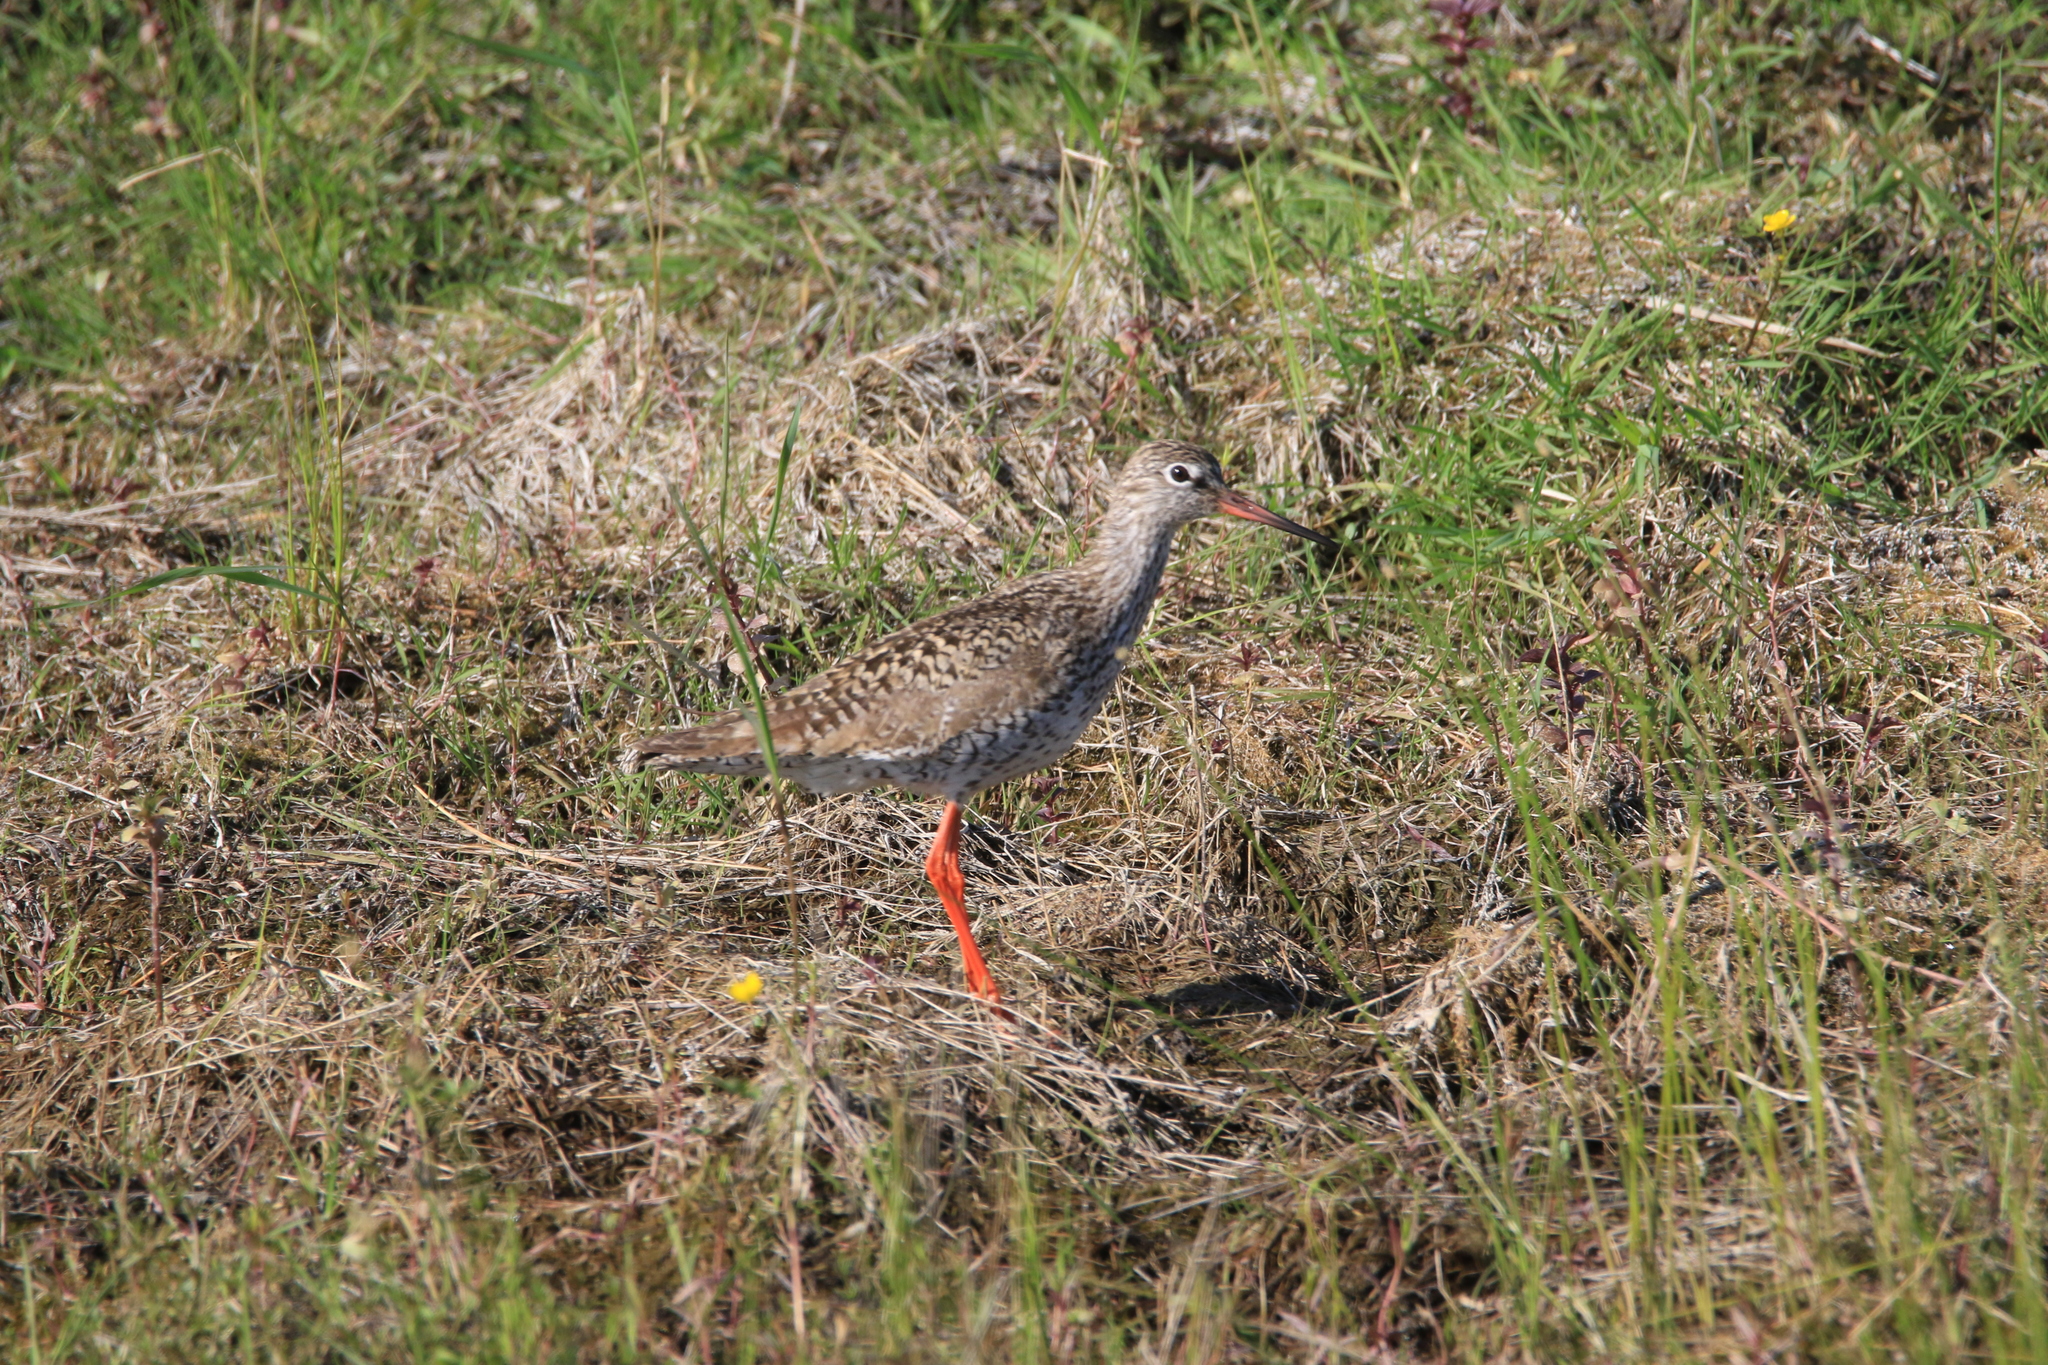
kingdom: Animalia
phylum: Chordata
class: Aves
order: Charadriiformes
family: Scolopacidae
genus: Tringa
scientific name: Tringa totanus
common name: Common redshank
